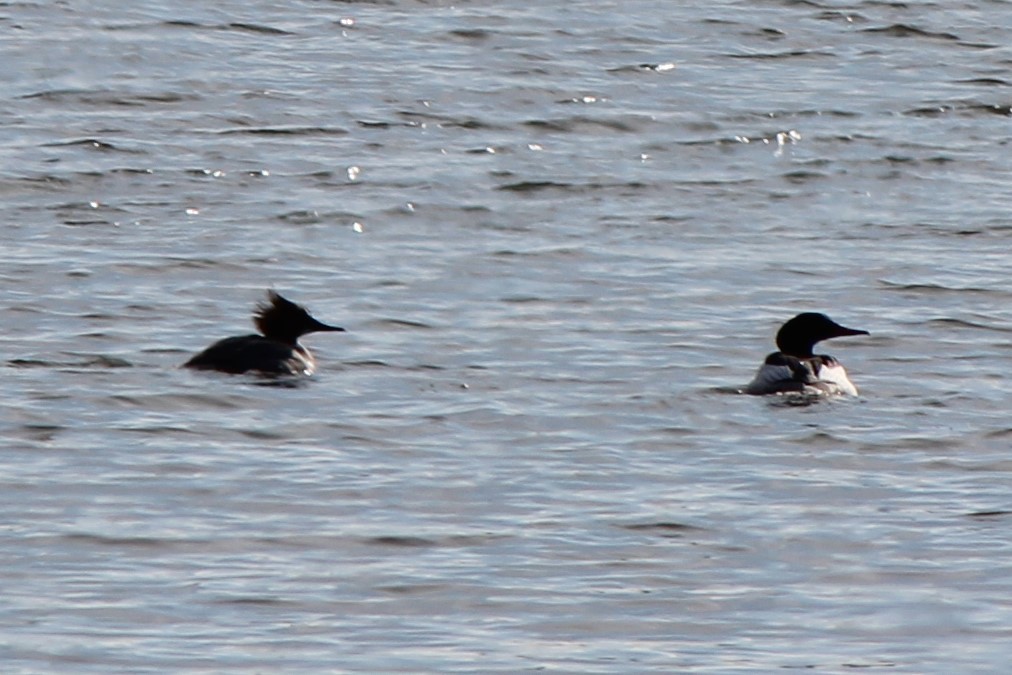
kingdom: Animalia
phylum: Chordata
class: Aves
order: Anseriformes
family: Anatidae
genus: Mergus
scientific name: Mergus merganser
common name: Common merganser
